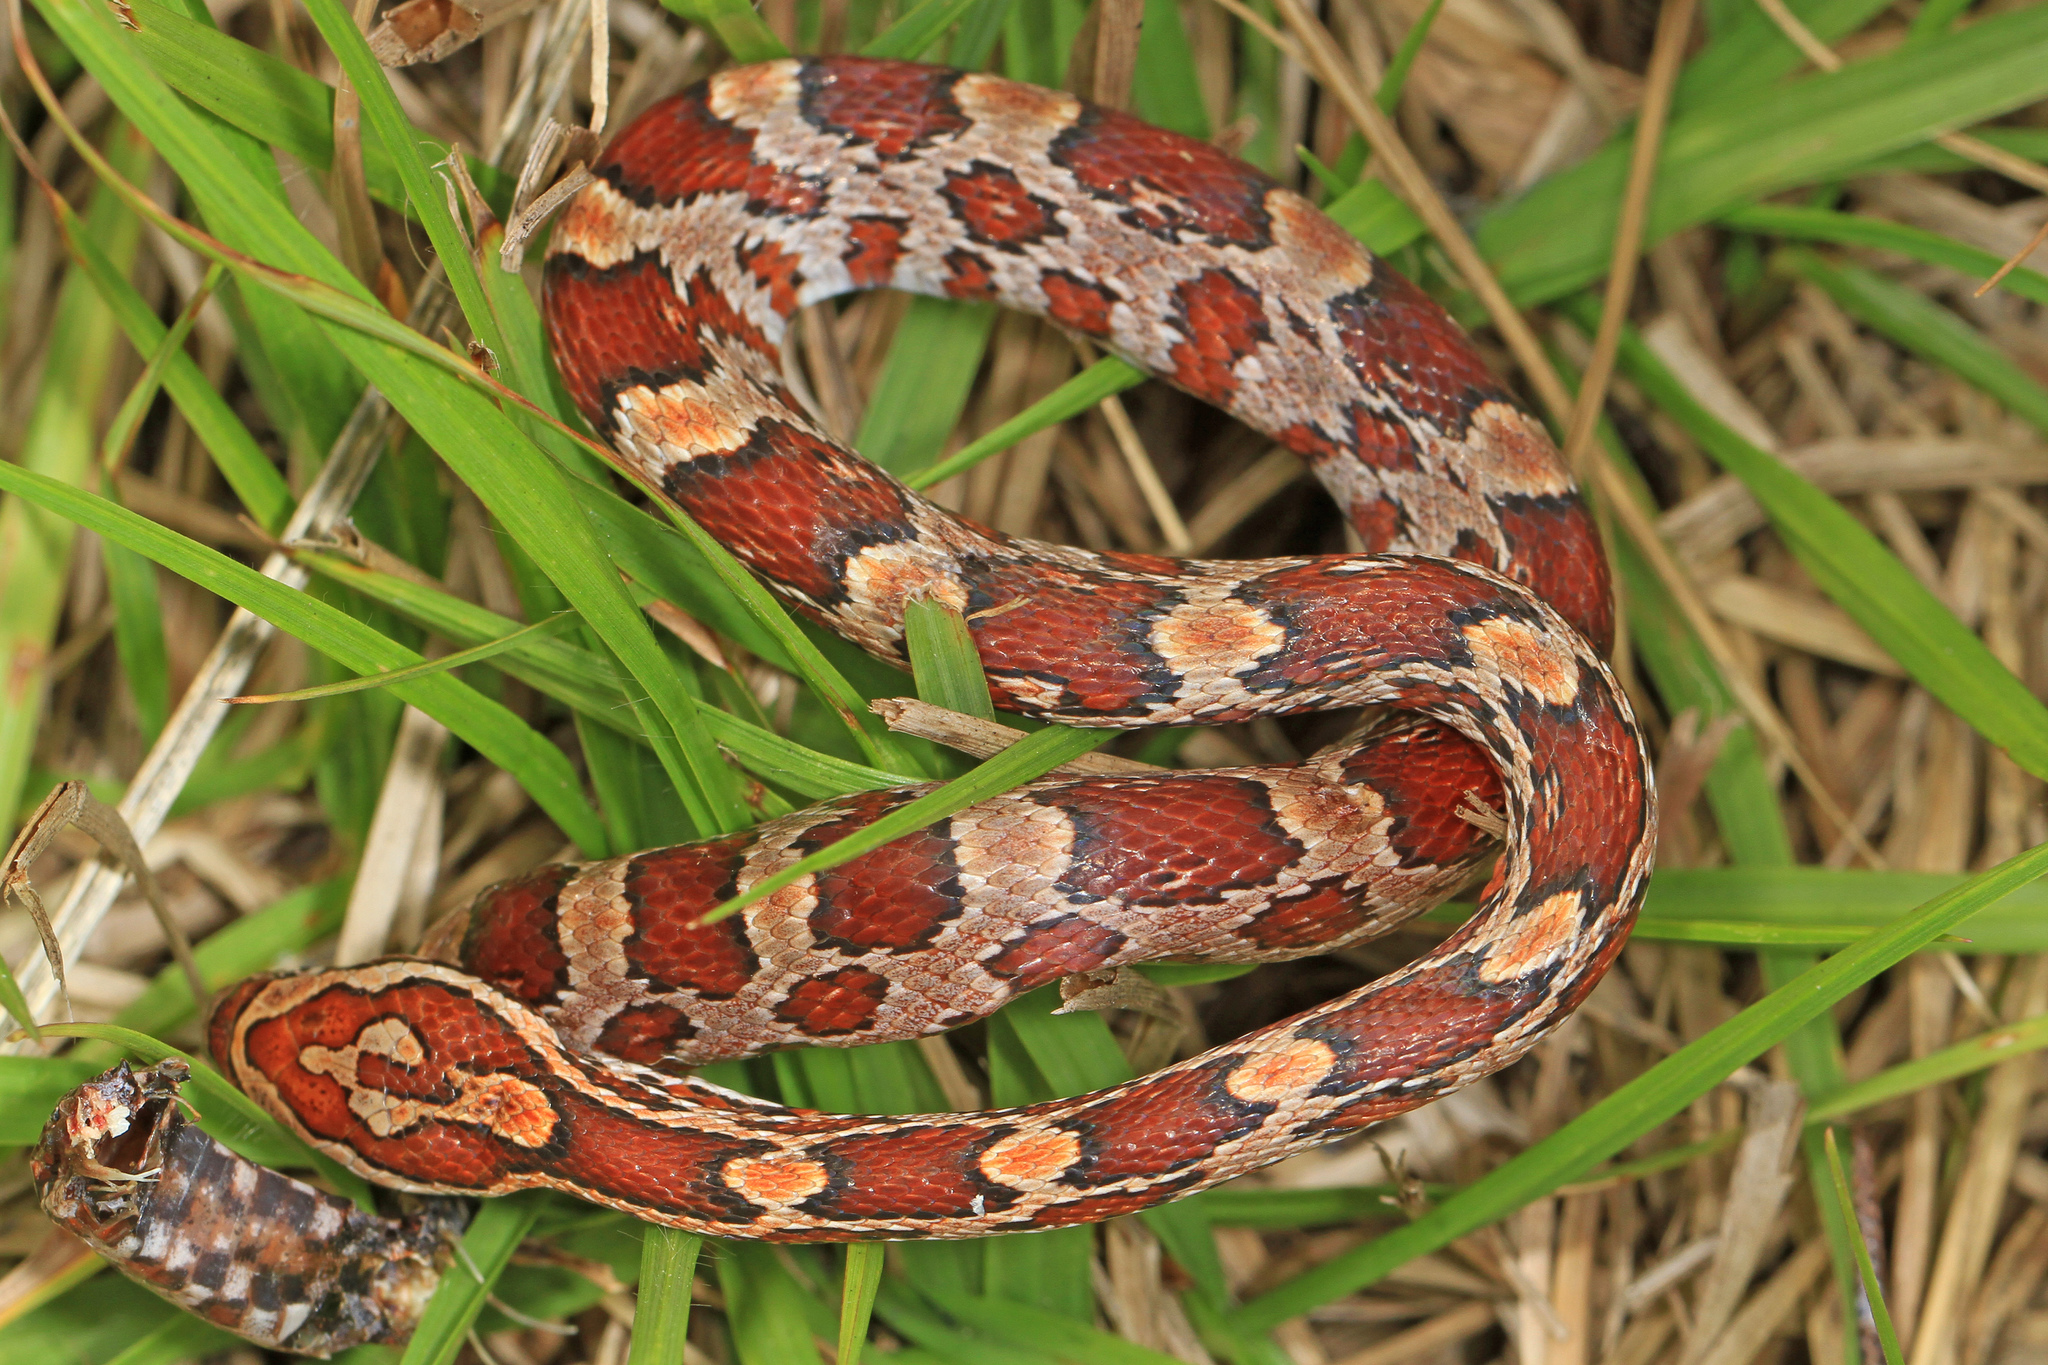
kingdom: Animalia
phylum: Chordata
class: Squamata
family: Colubridae
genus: Pantherophis
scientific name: Pantherophis guttatus
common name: Red cornsnake
